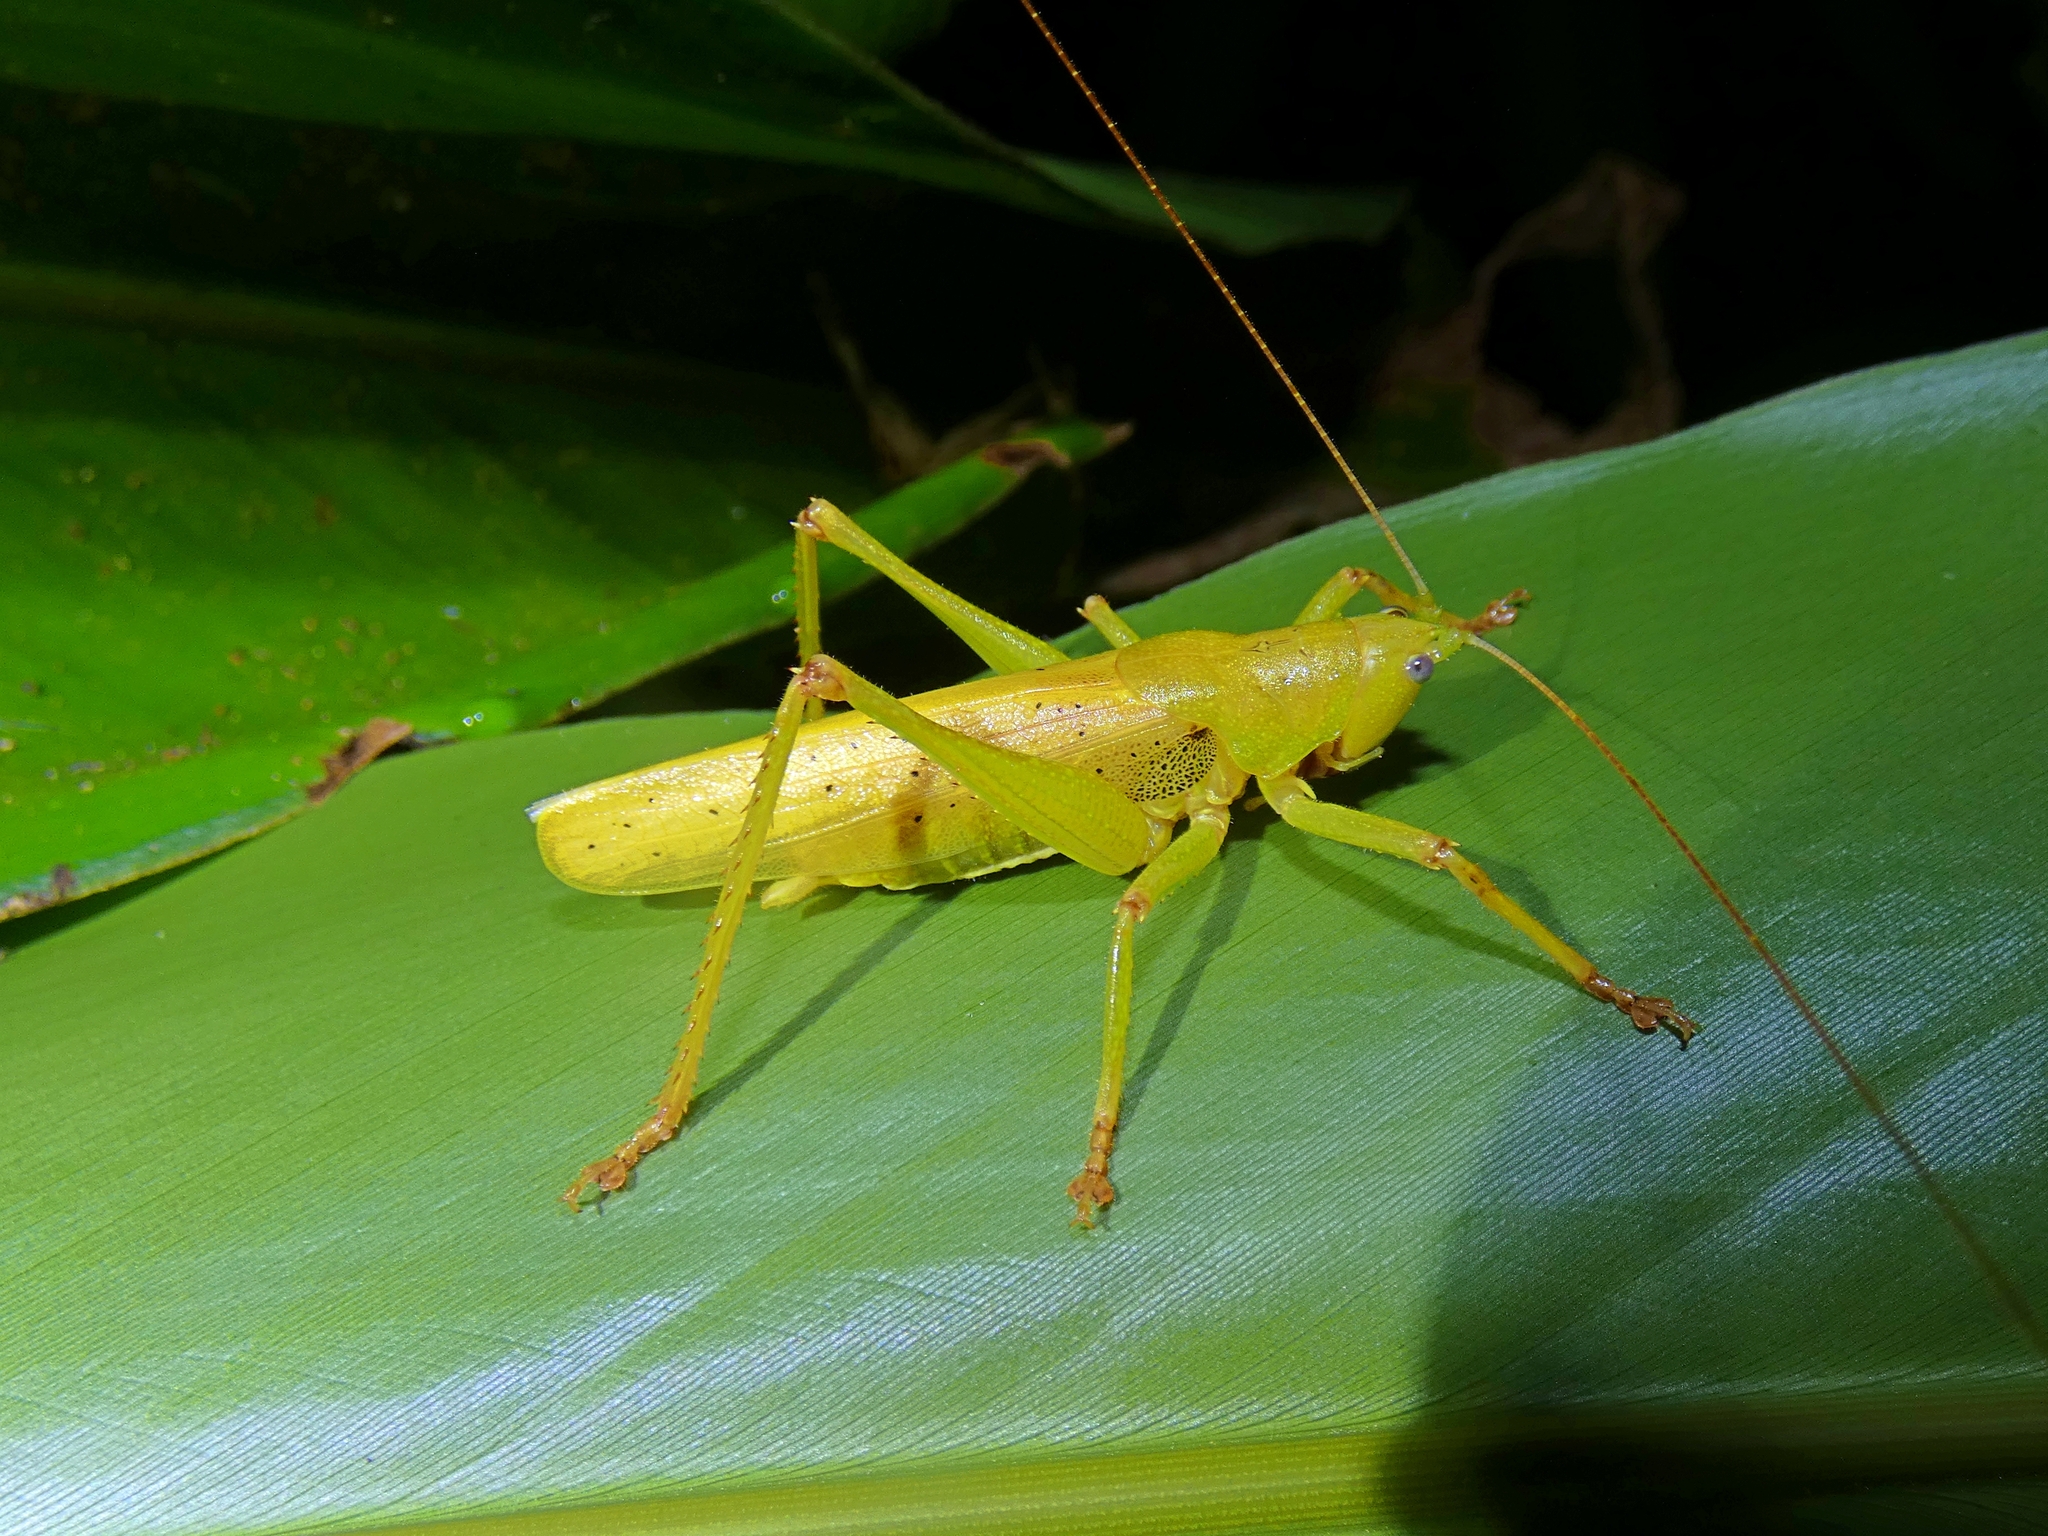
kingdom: Animalia
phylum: Arthropoda
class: Insecta
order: Orthoptera
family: Tettigoniidae
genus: Austrosalomona
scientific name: Austrosalomona destructor
